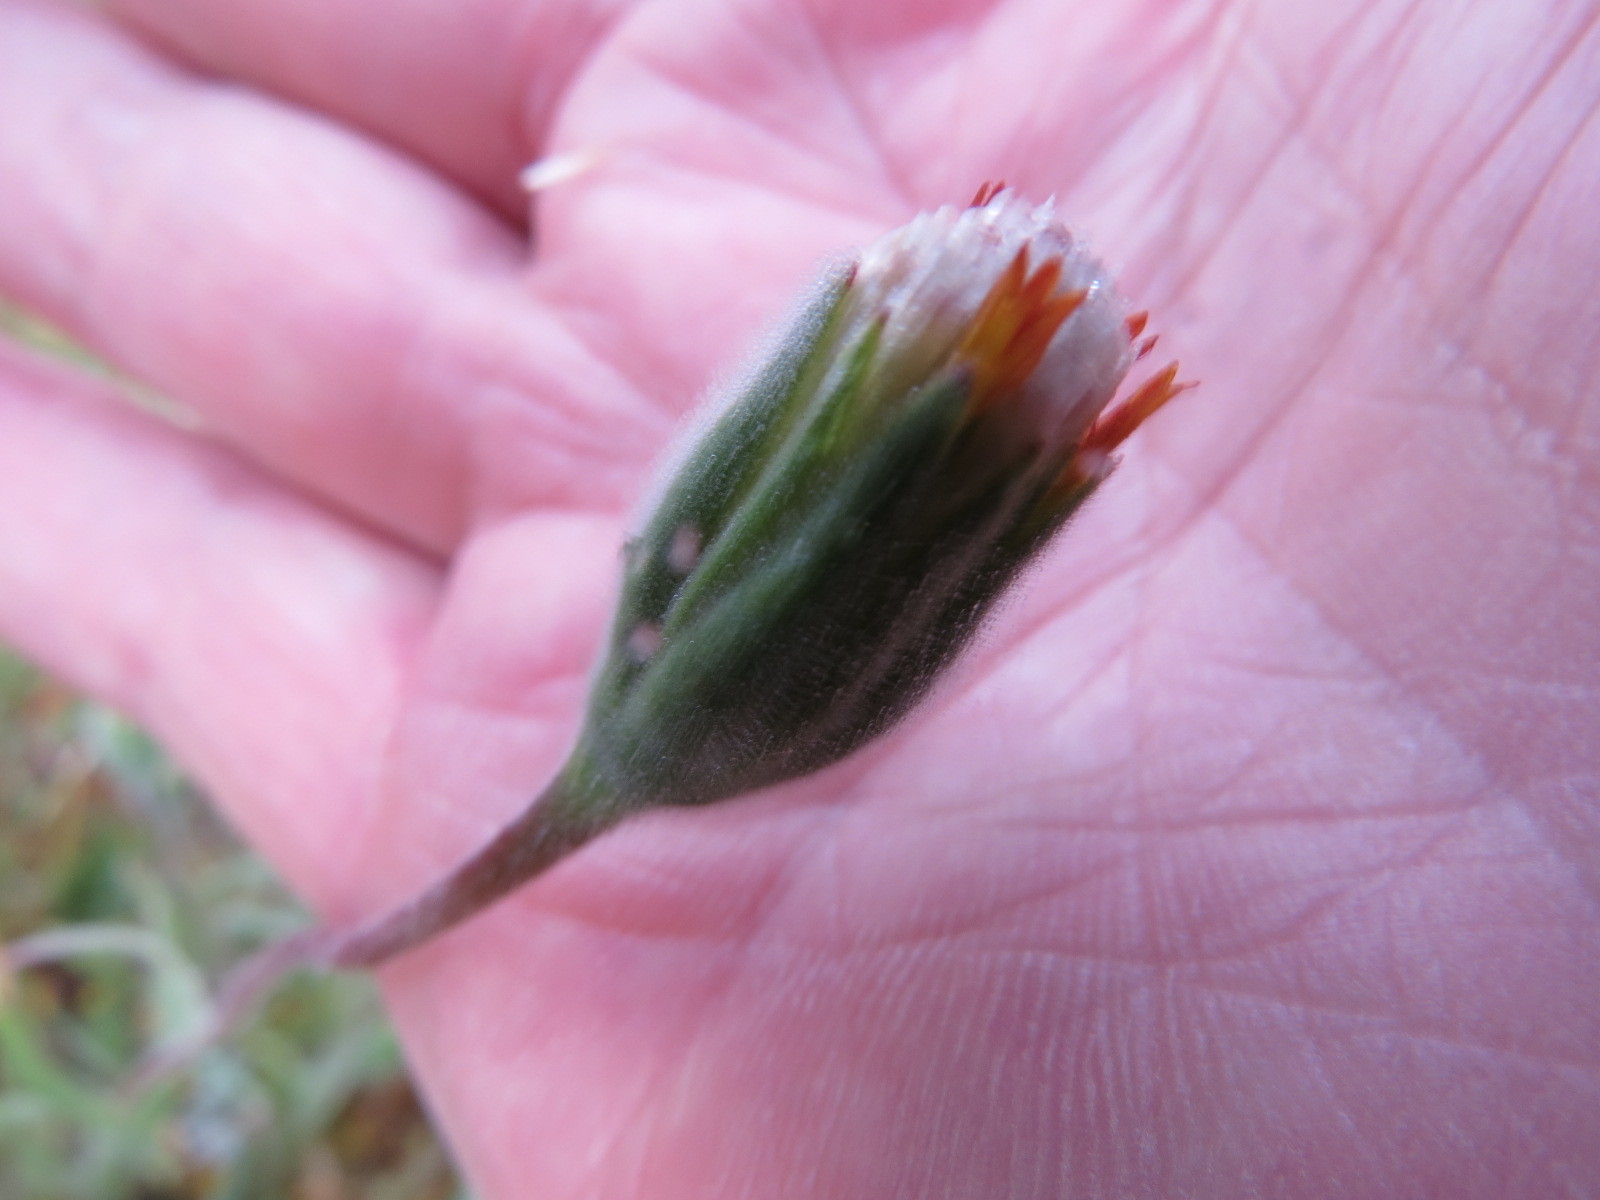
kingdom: Plantae
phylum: Tracheophyta
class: Magnoliopsida
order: Asterales
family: Asteraceae
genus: Achyrachaena
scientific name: Achyrachaena mollis
